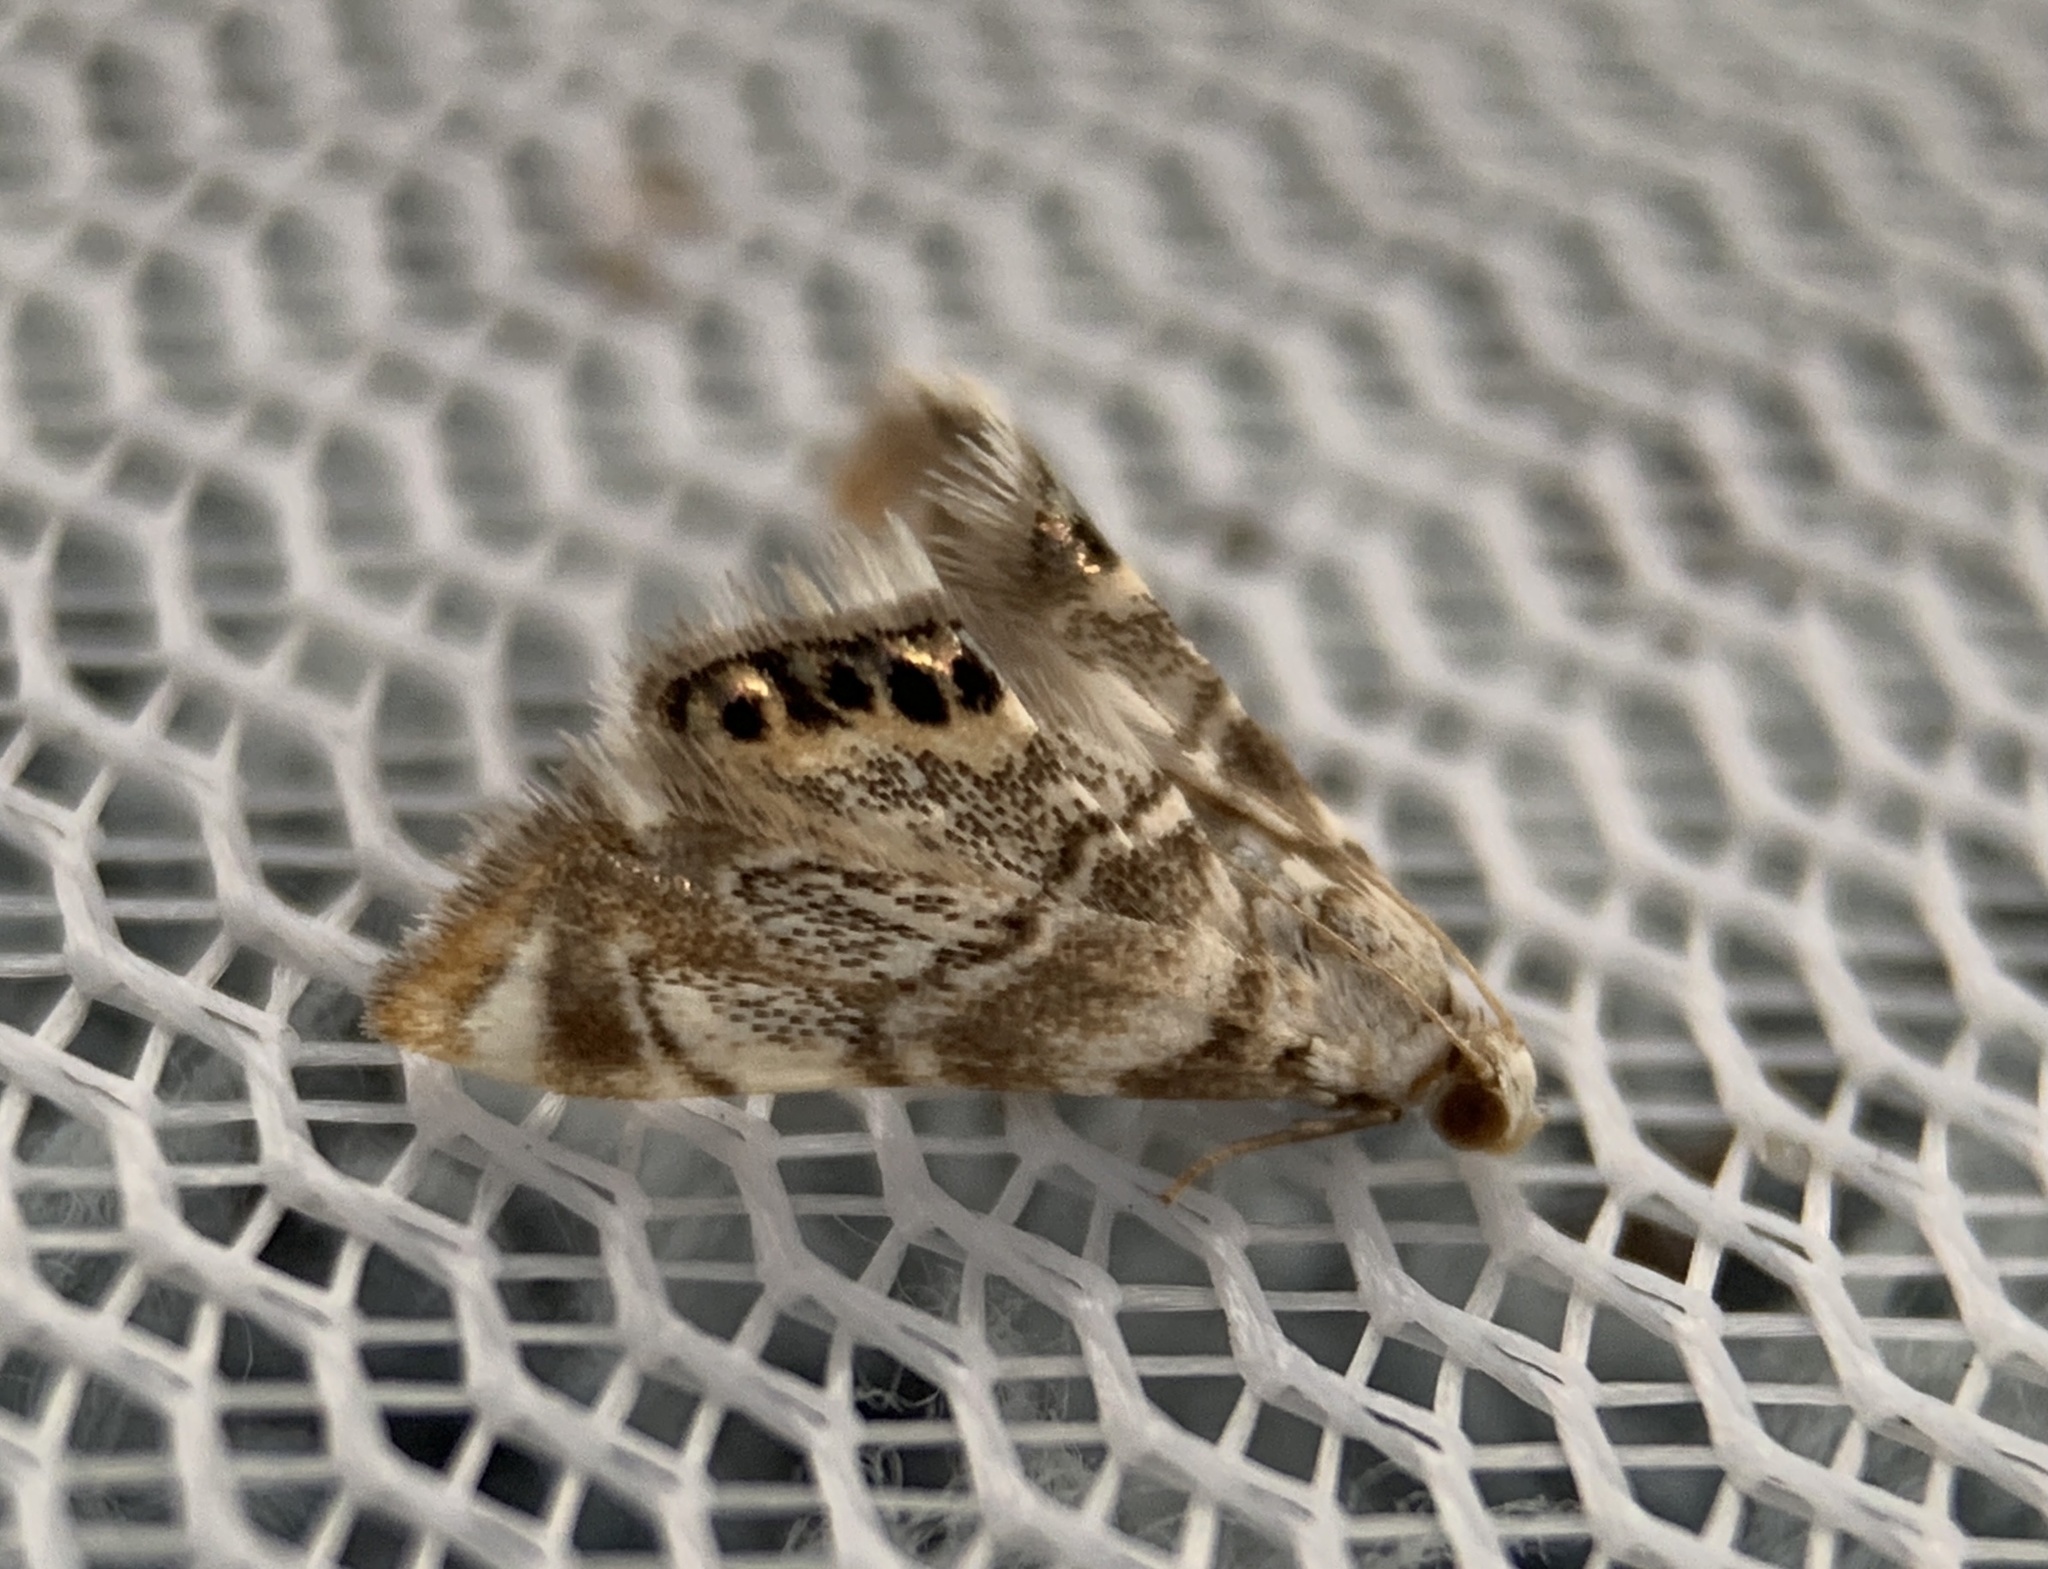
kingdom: Animalia
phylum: Arthropoda
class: Insecta
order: Lepidoptera
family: Crambidae
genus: Eoparargyractis
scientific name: Eoparargyractis irroratalis
